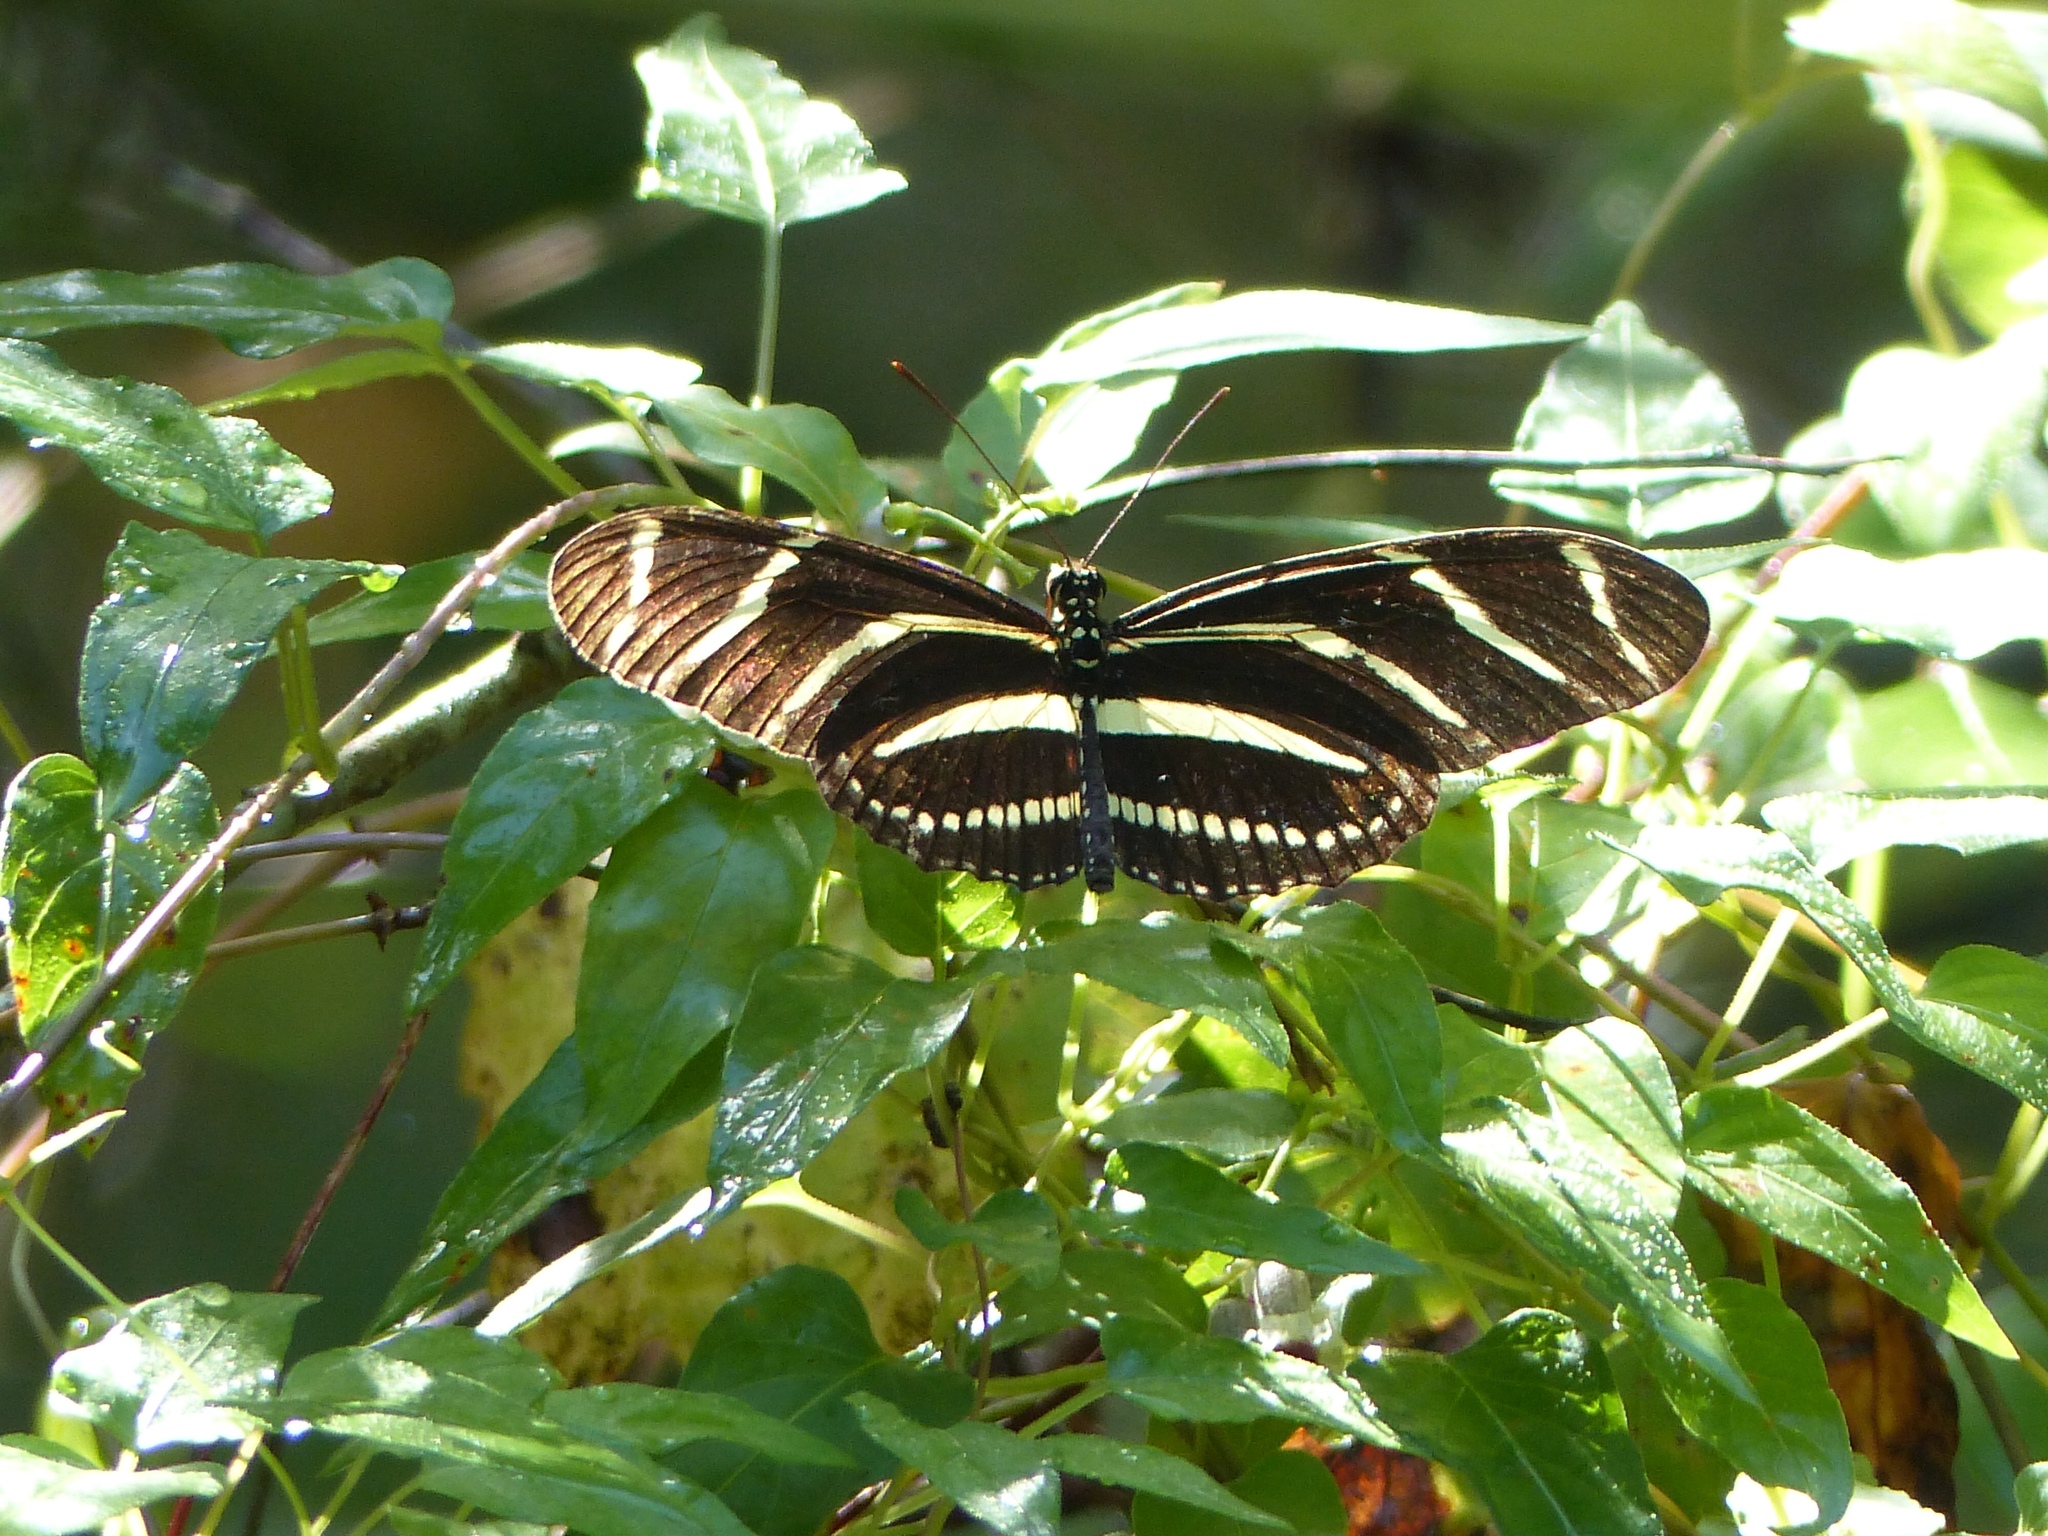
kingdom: Animalia
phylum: Arthropoda
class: Insecta
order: Lepidoptera
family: Nymphalidae
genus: Heliconius
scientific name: Heliconius charithonia
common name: Zebra long wing
